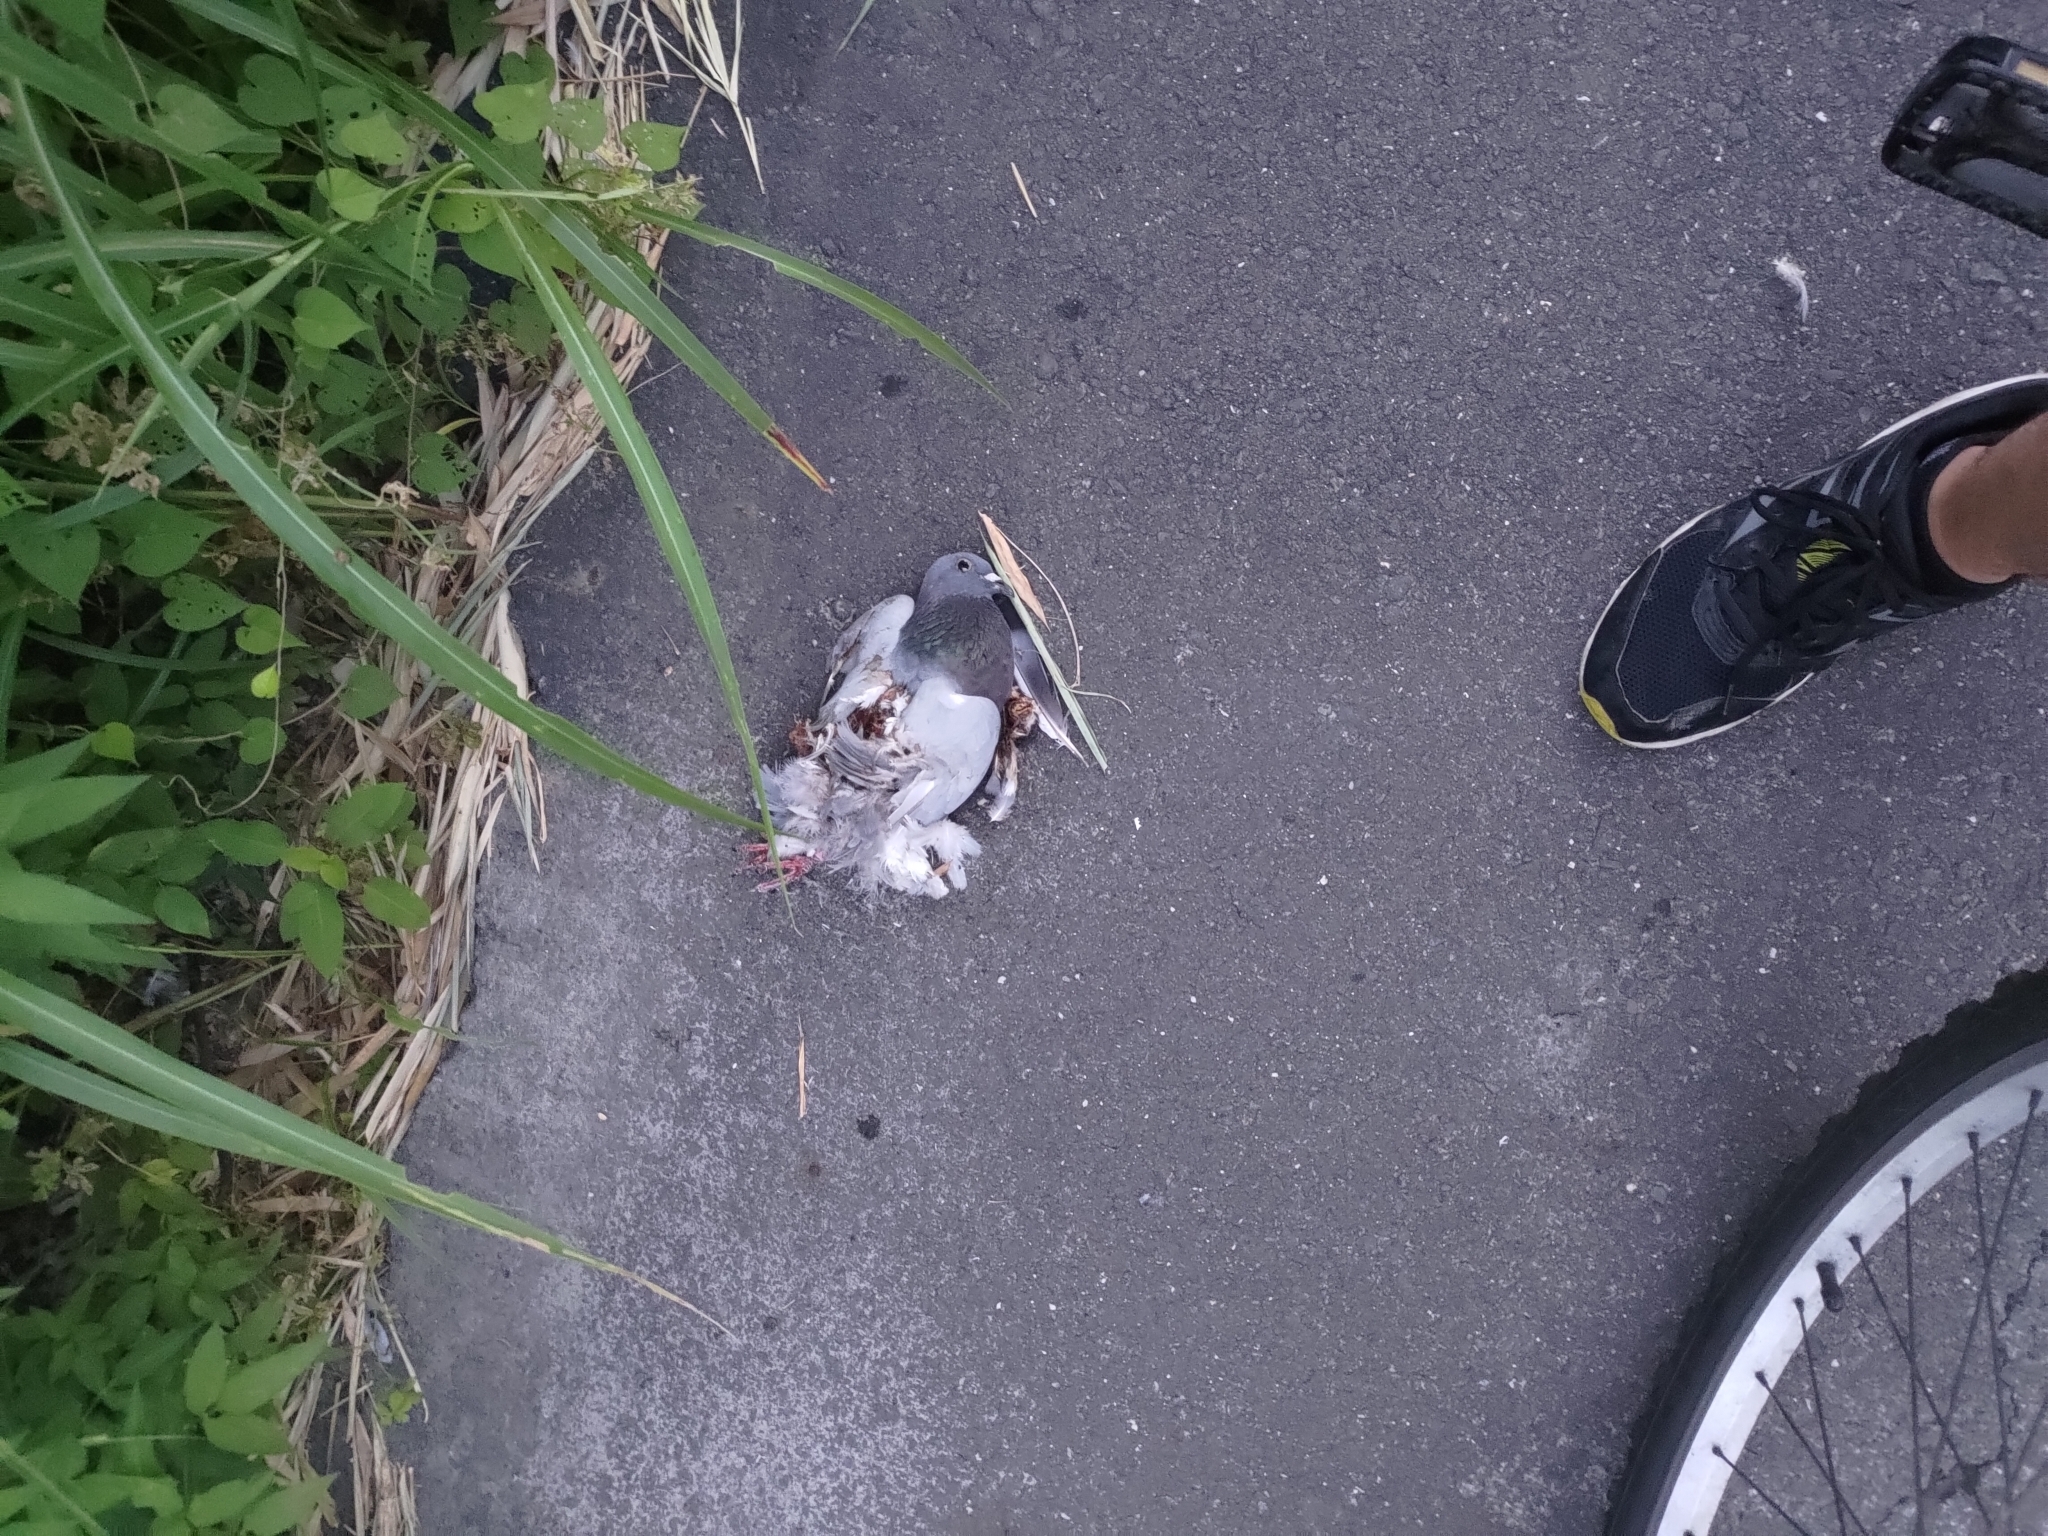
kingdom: Animalia
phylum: Chordata
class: Aves
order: Columbiformes
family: Columbidae
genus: Columba
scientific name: Columba livia
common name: Rock pigeon
